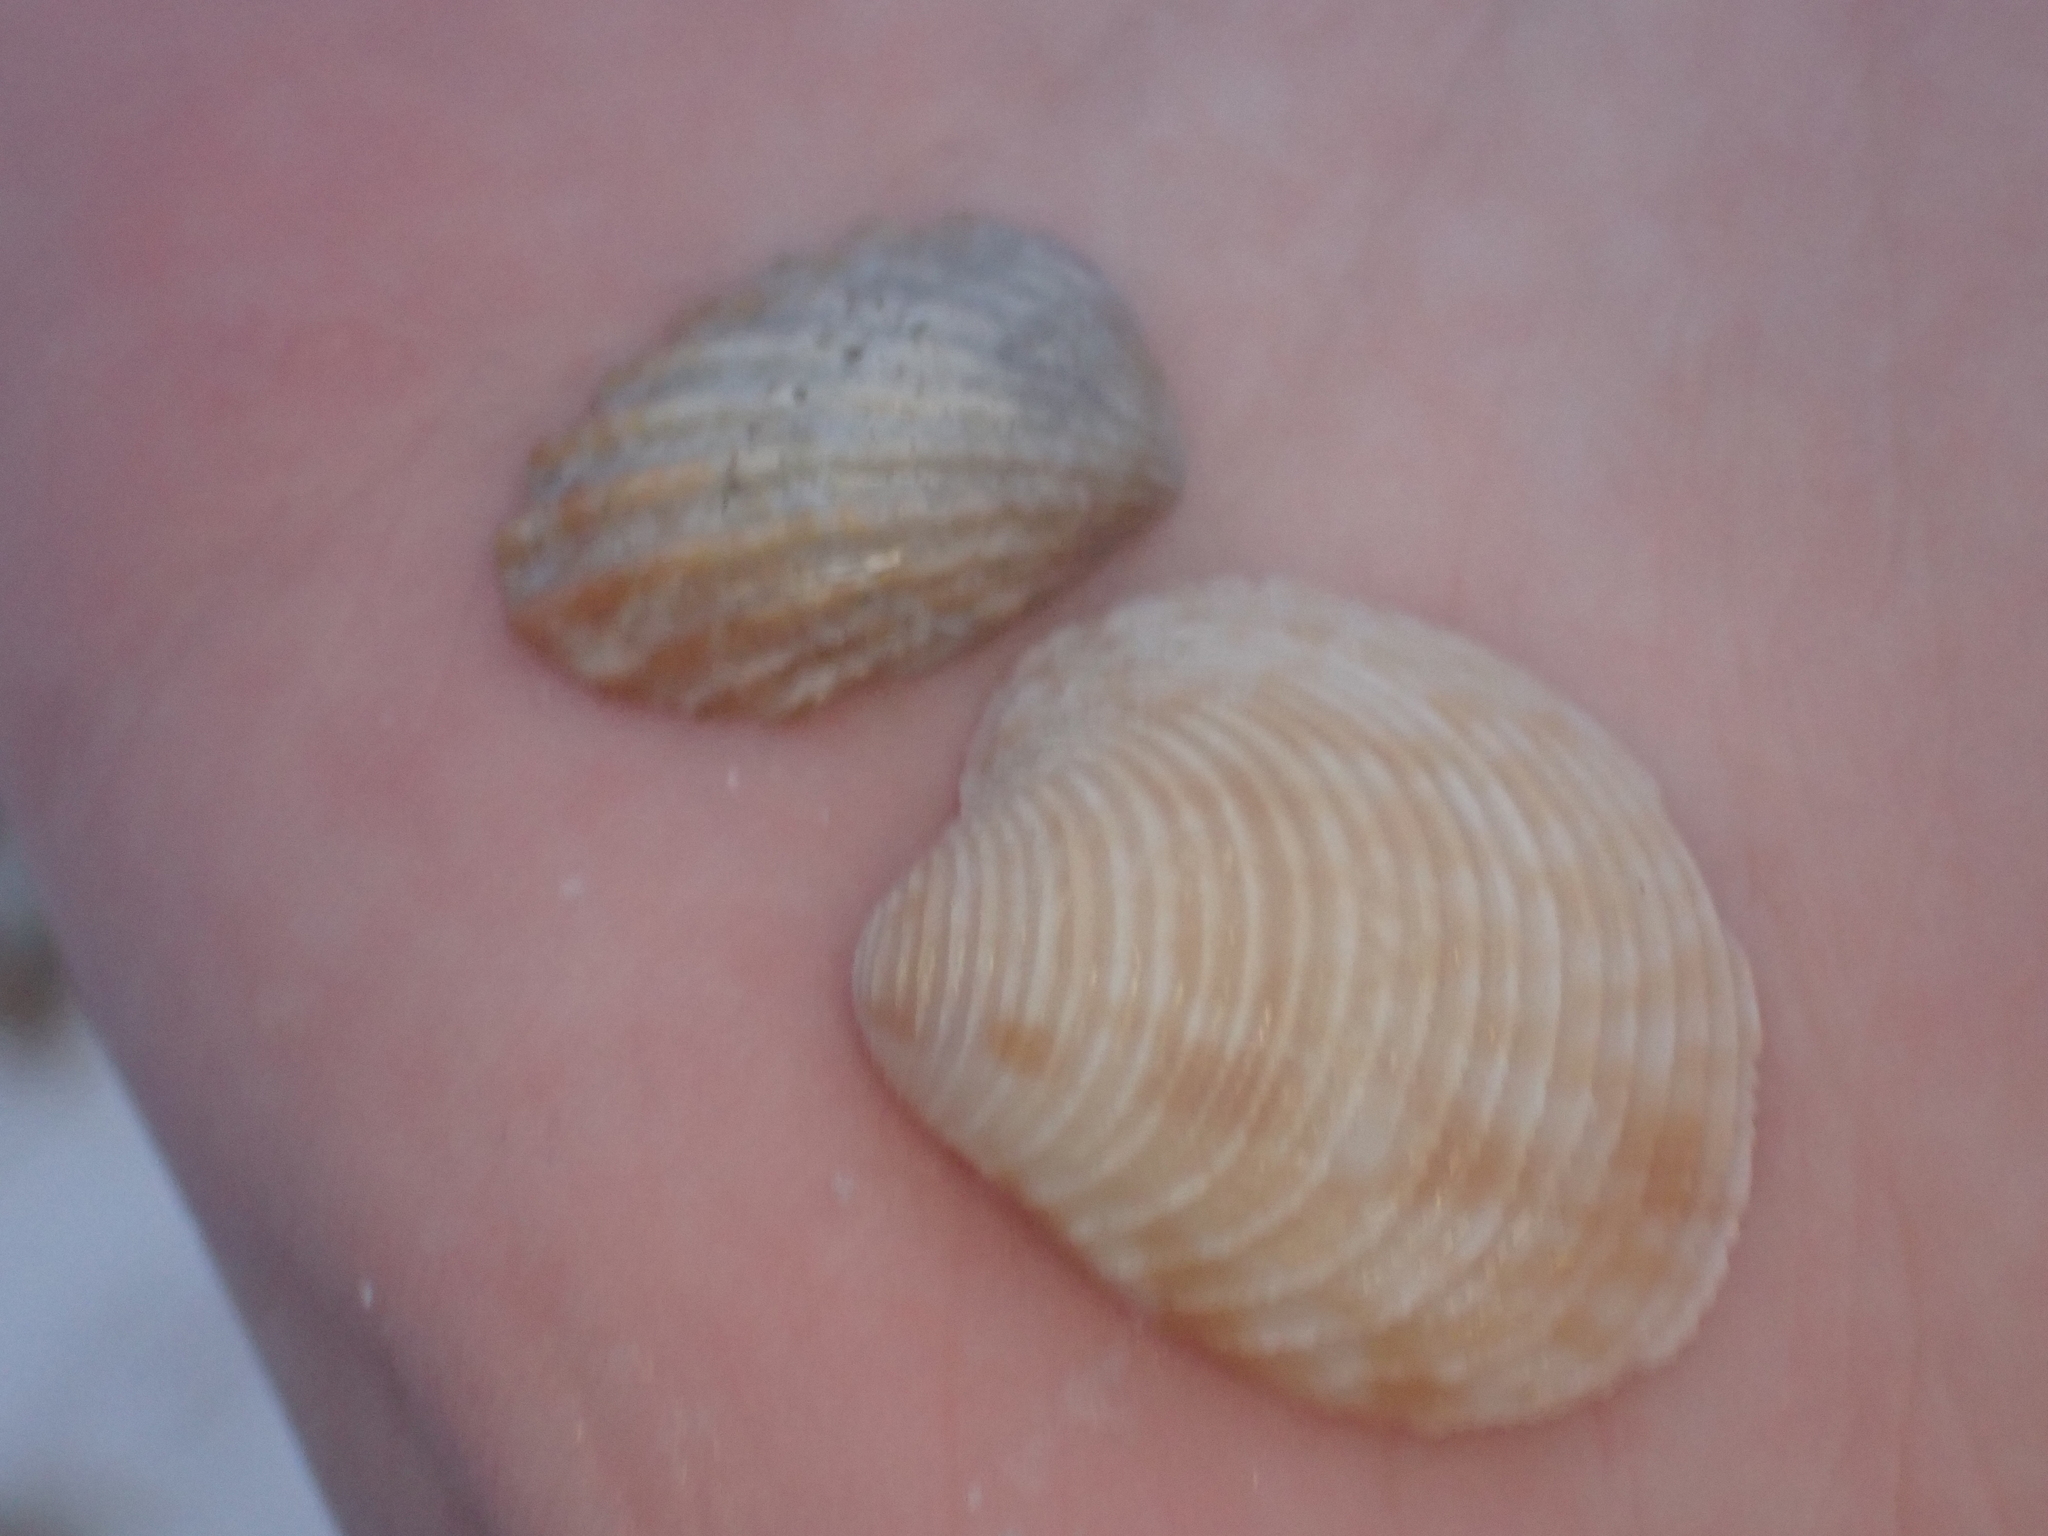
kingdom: Animalia
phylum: Mollusca
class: Bivalvia
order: Carditida
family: Carditidae
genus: Cardites
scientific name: Cardites floridanus
